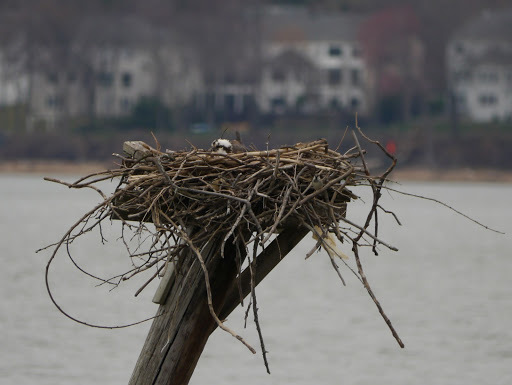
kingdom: Animalia
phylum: Chordata
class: Aves
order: Accipitriformes
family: Pandionidae
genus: Pandion
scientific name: Pandion haliaetus
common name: Osprey
